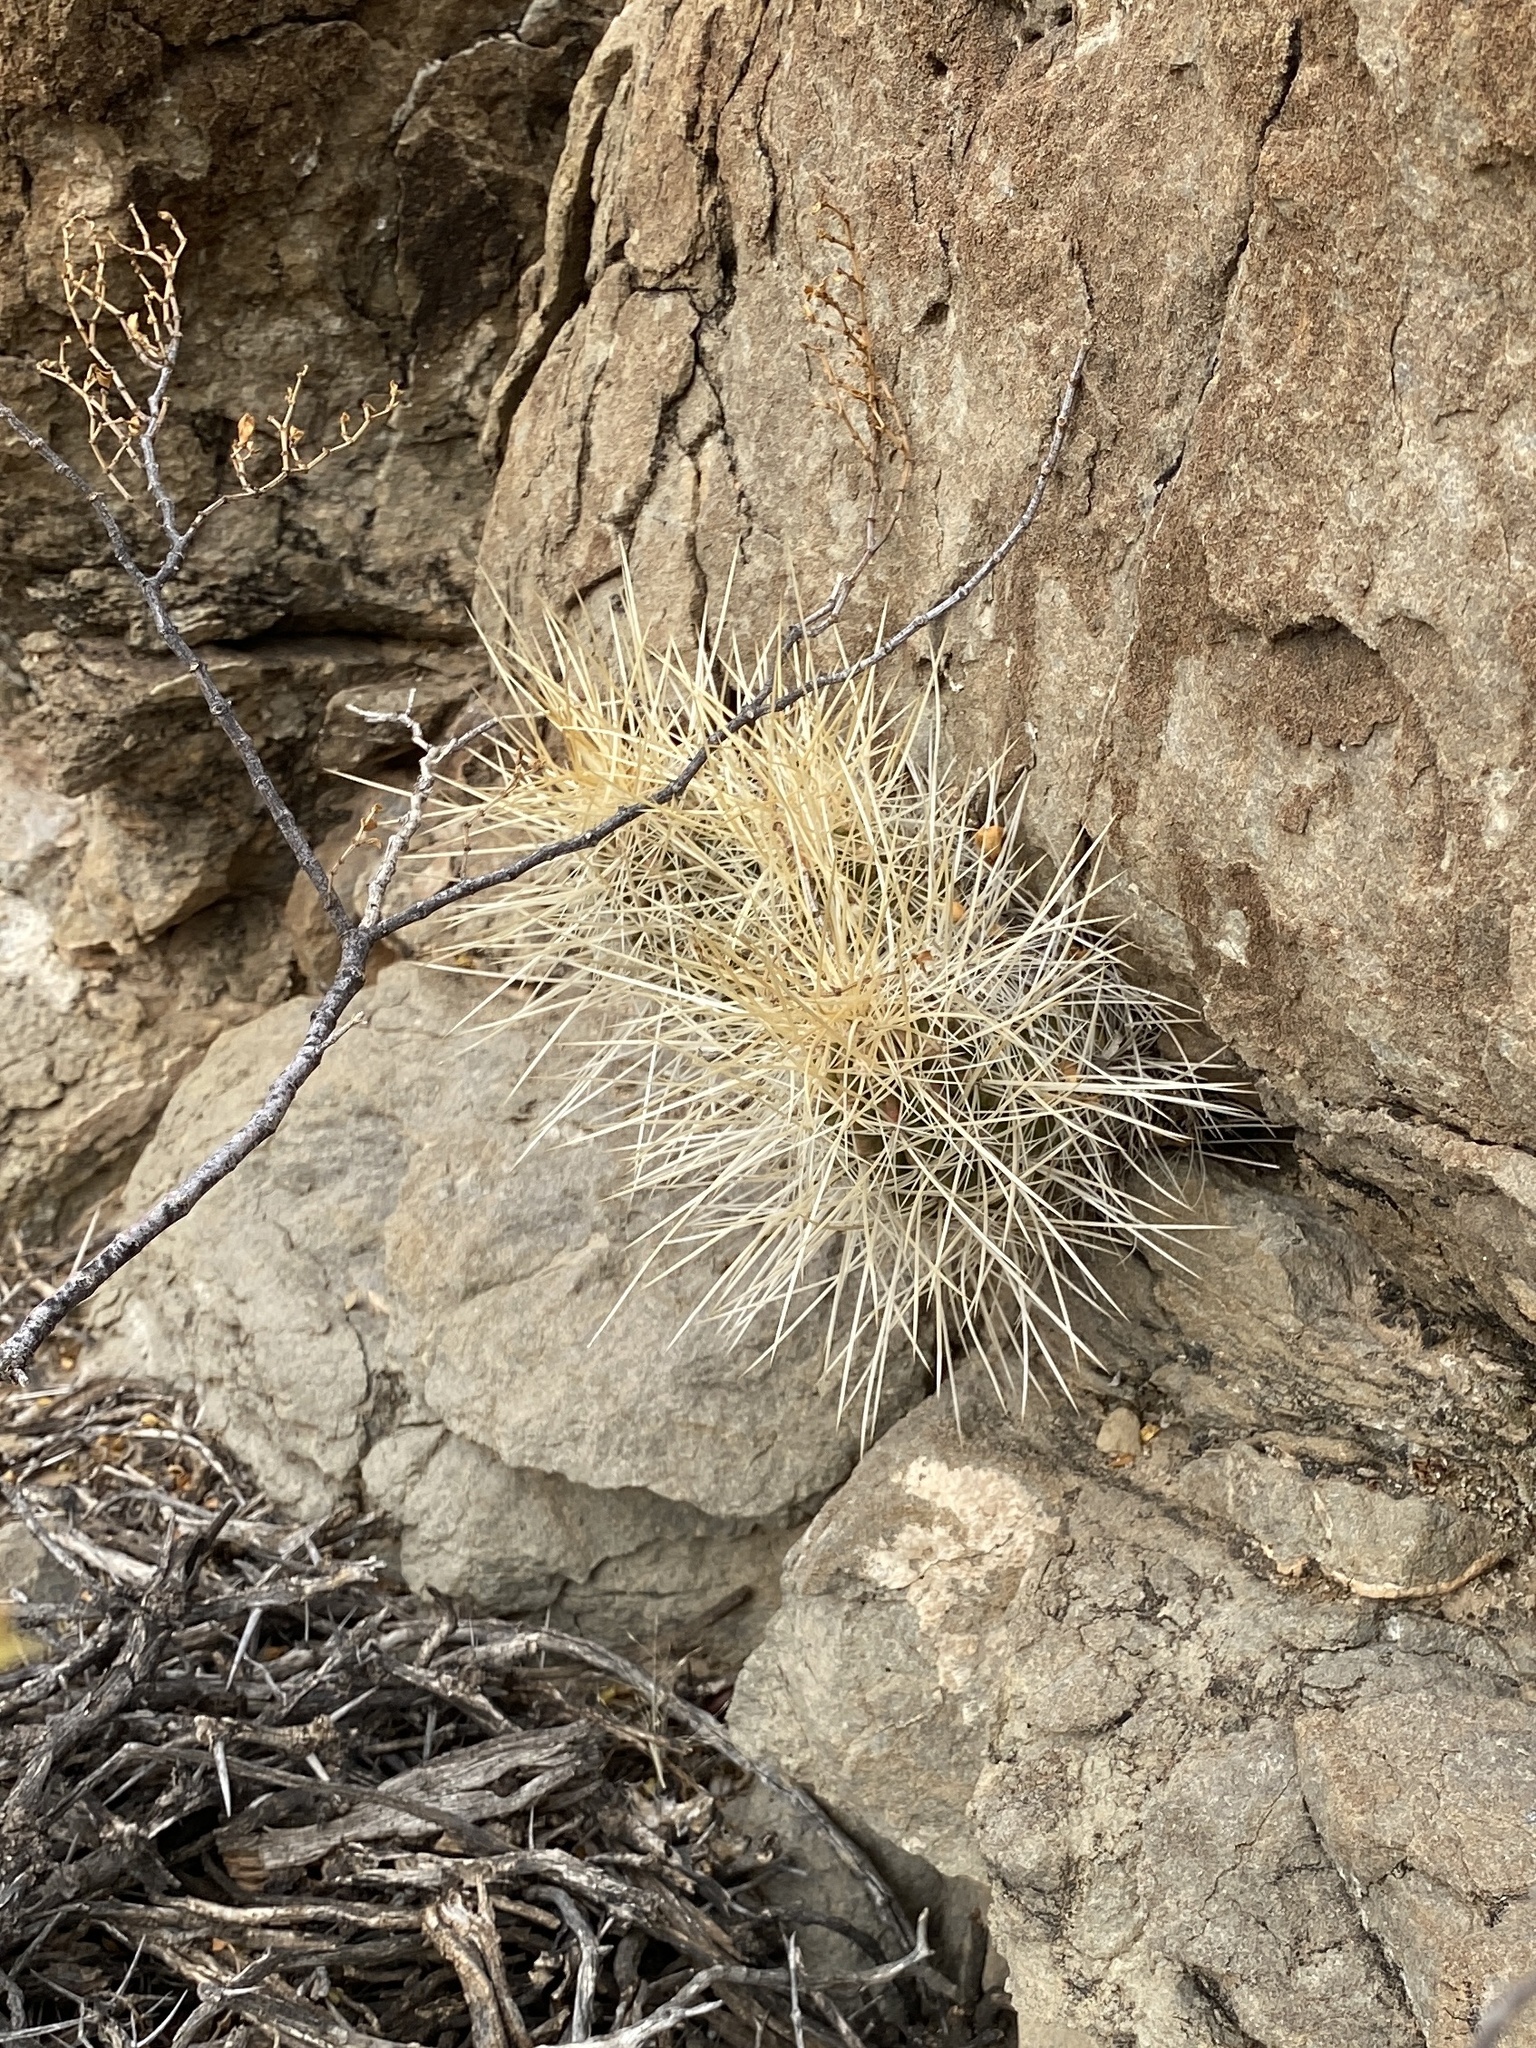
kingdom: Plantae
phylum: Tracheophyta
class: Magnoliopsida
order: Caryophyllales
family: Cactaceae
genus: Echinocereus
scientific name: Echinocereus stramineus
